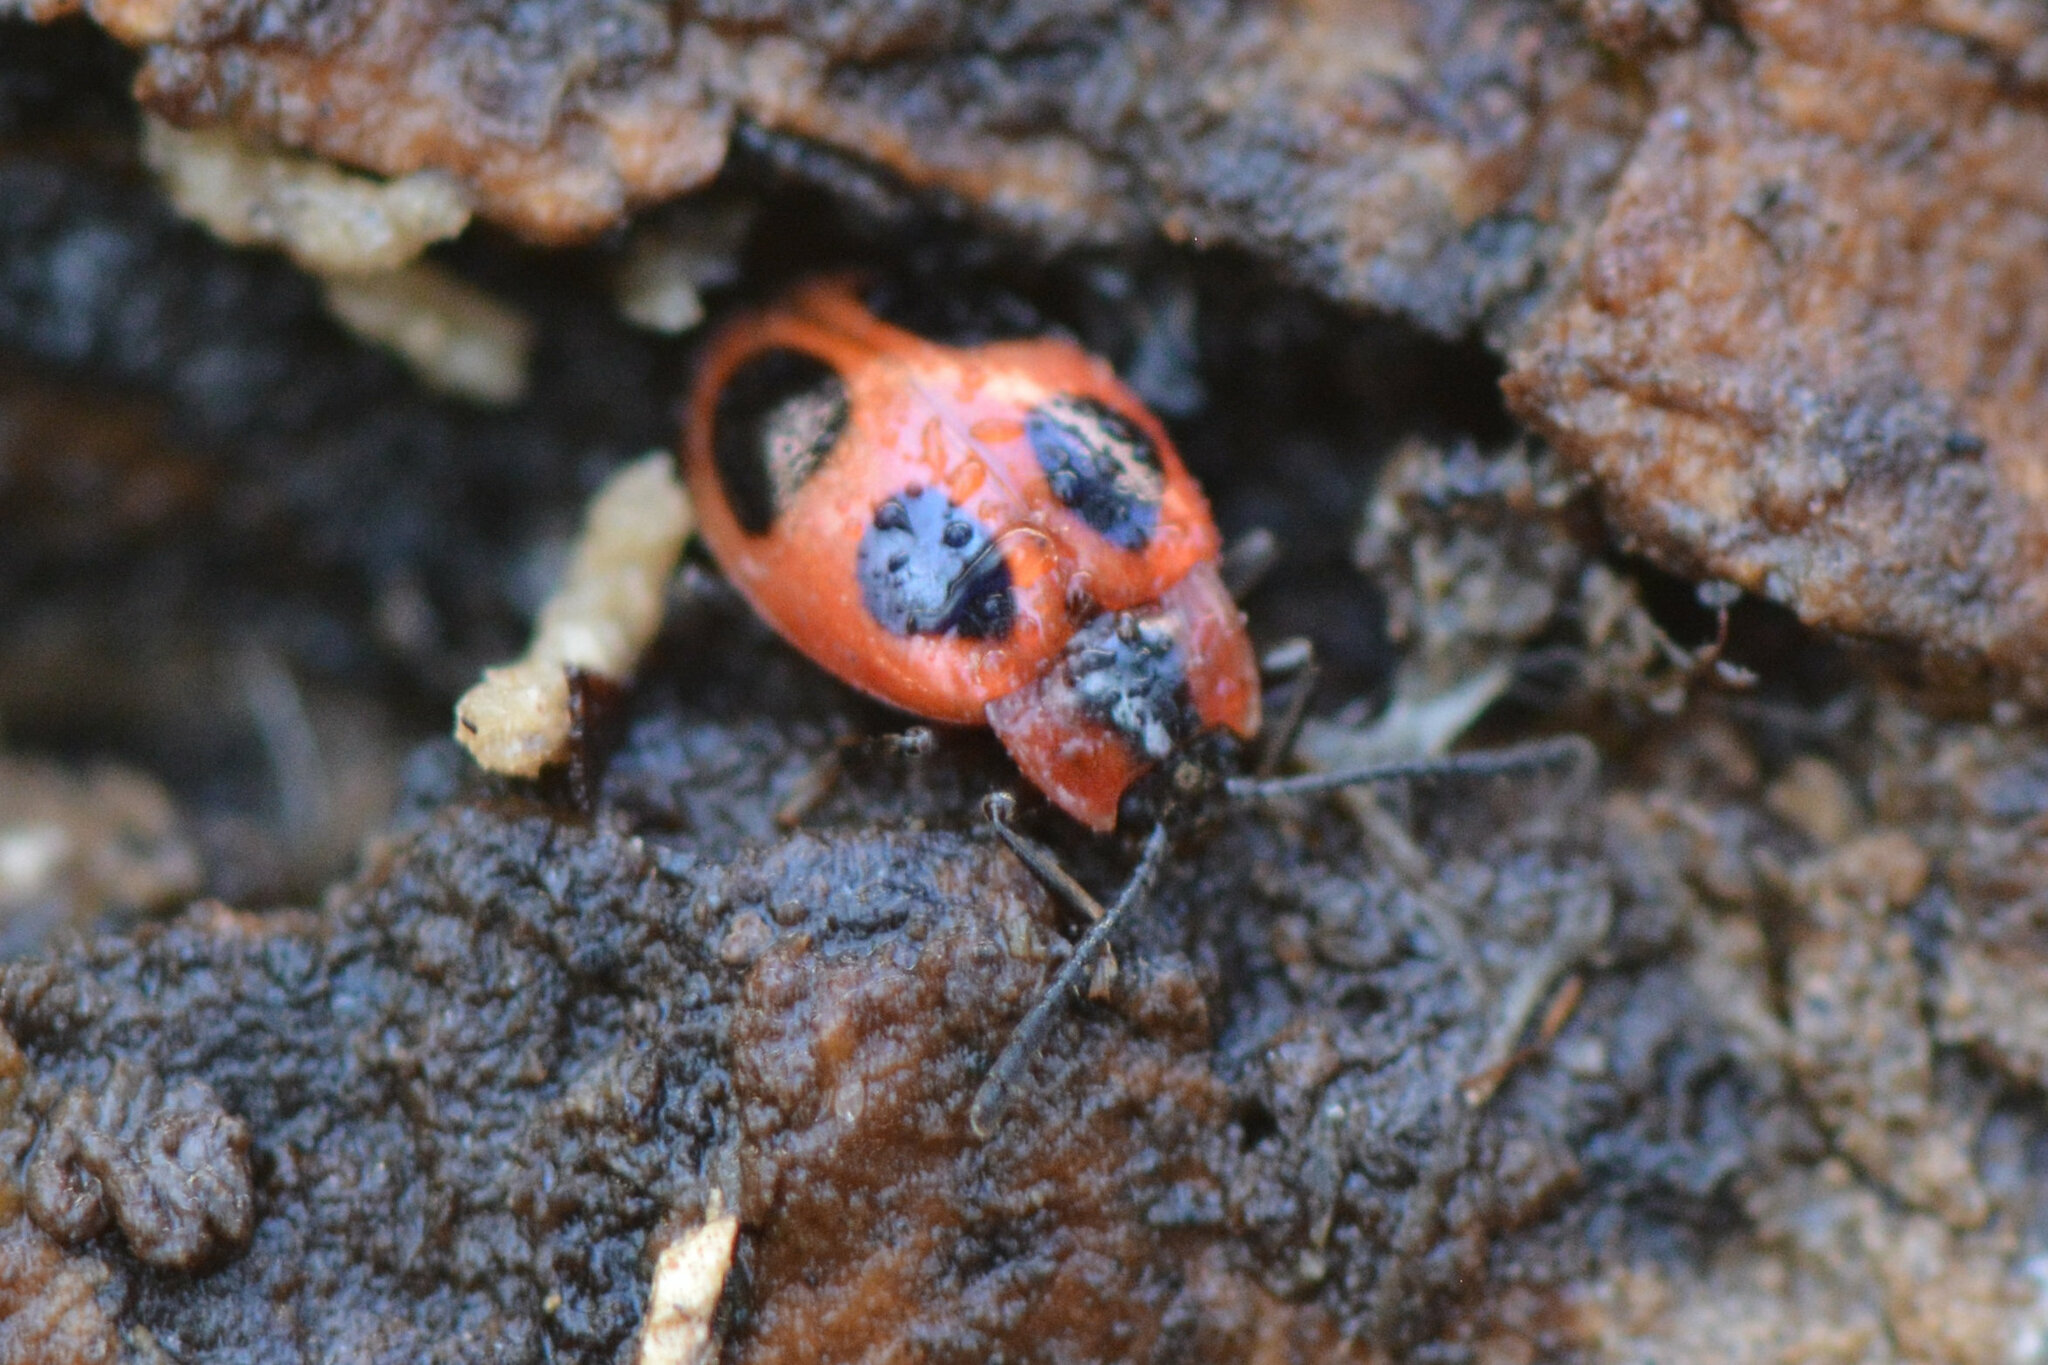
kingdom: Animalia
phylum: Arthropoda
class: Insecta
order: Coleoptera
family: Endomychidae
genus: Endomychus
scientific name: Endomychus coccineus
